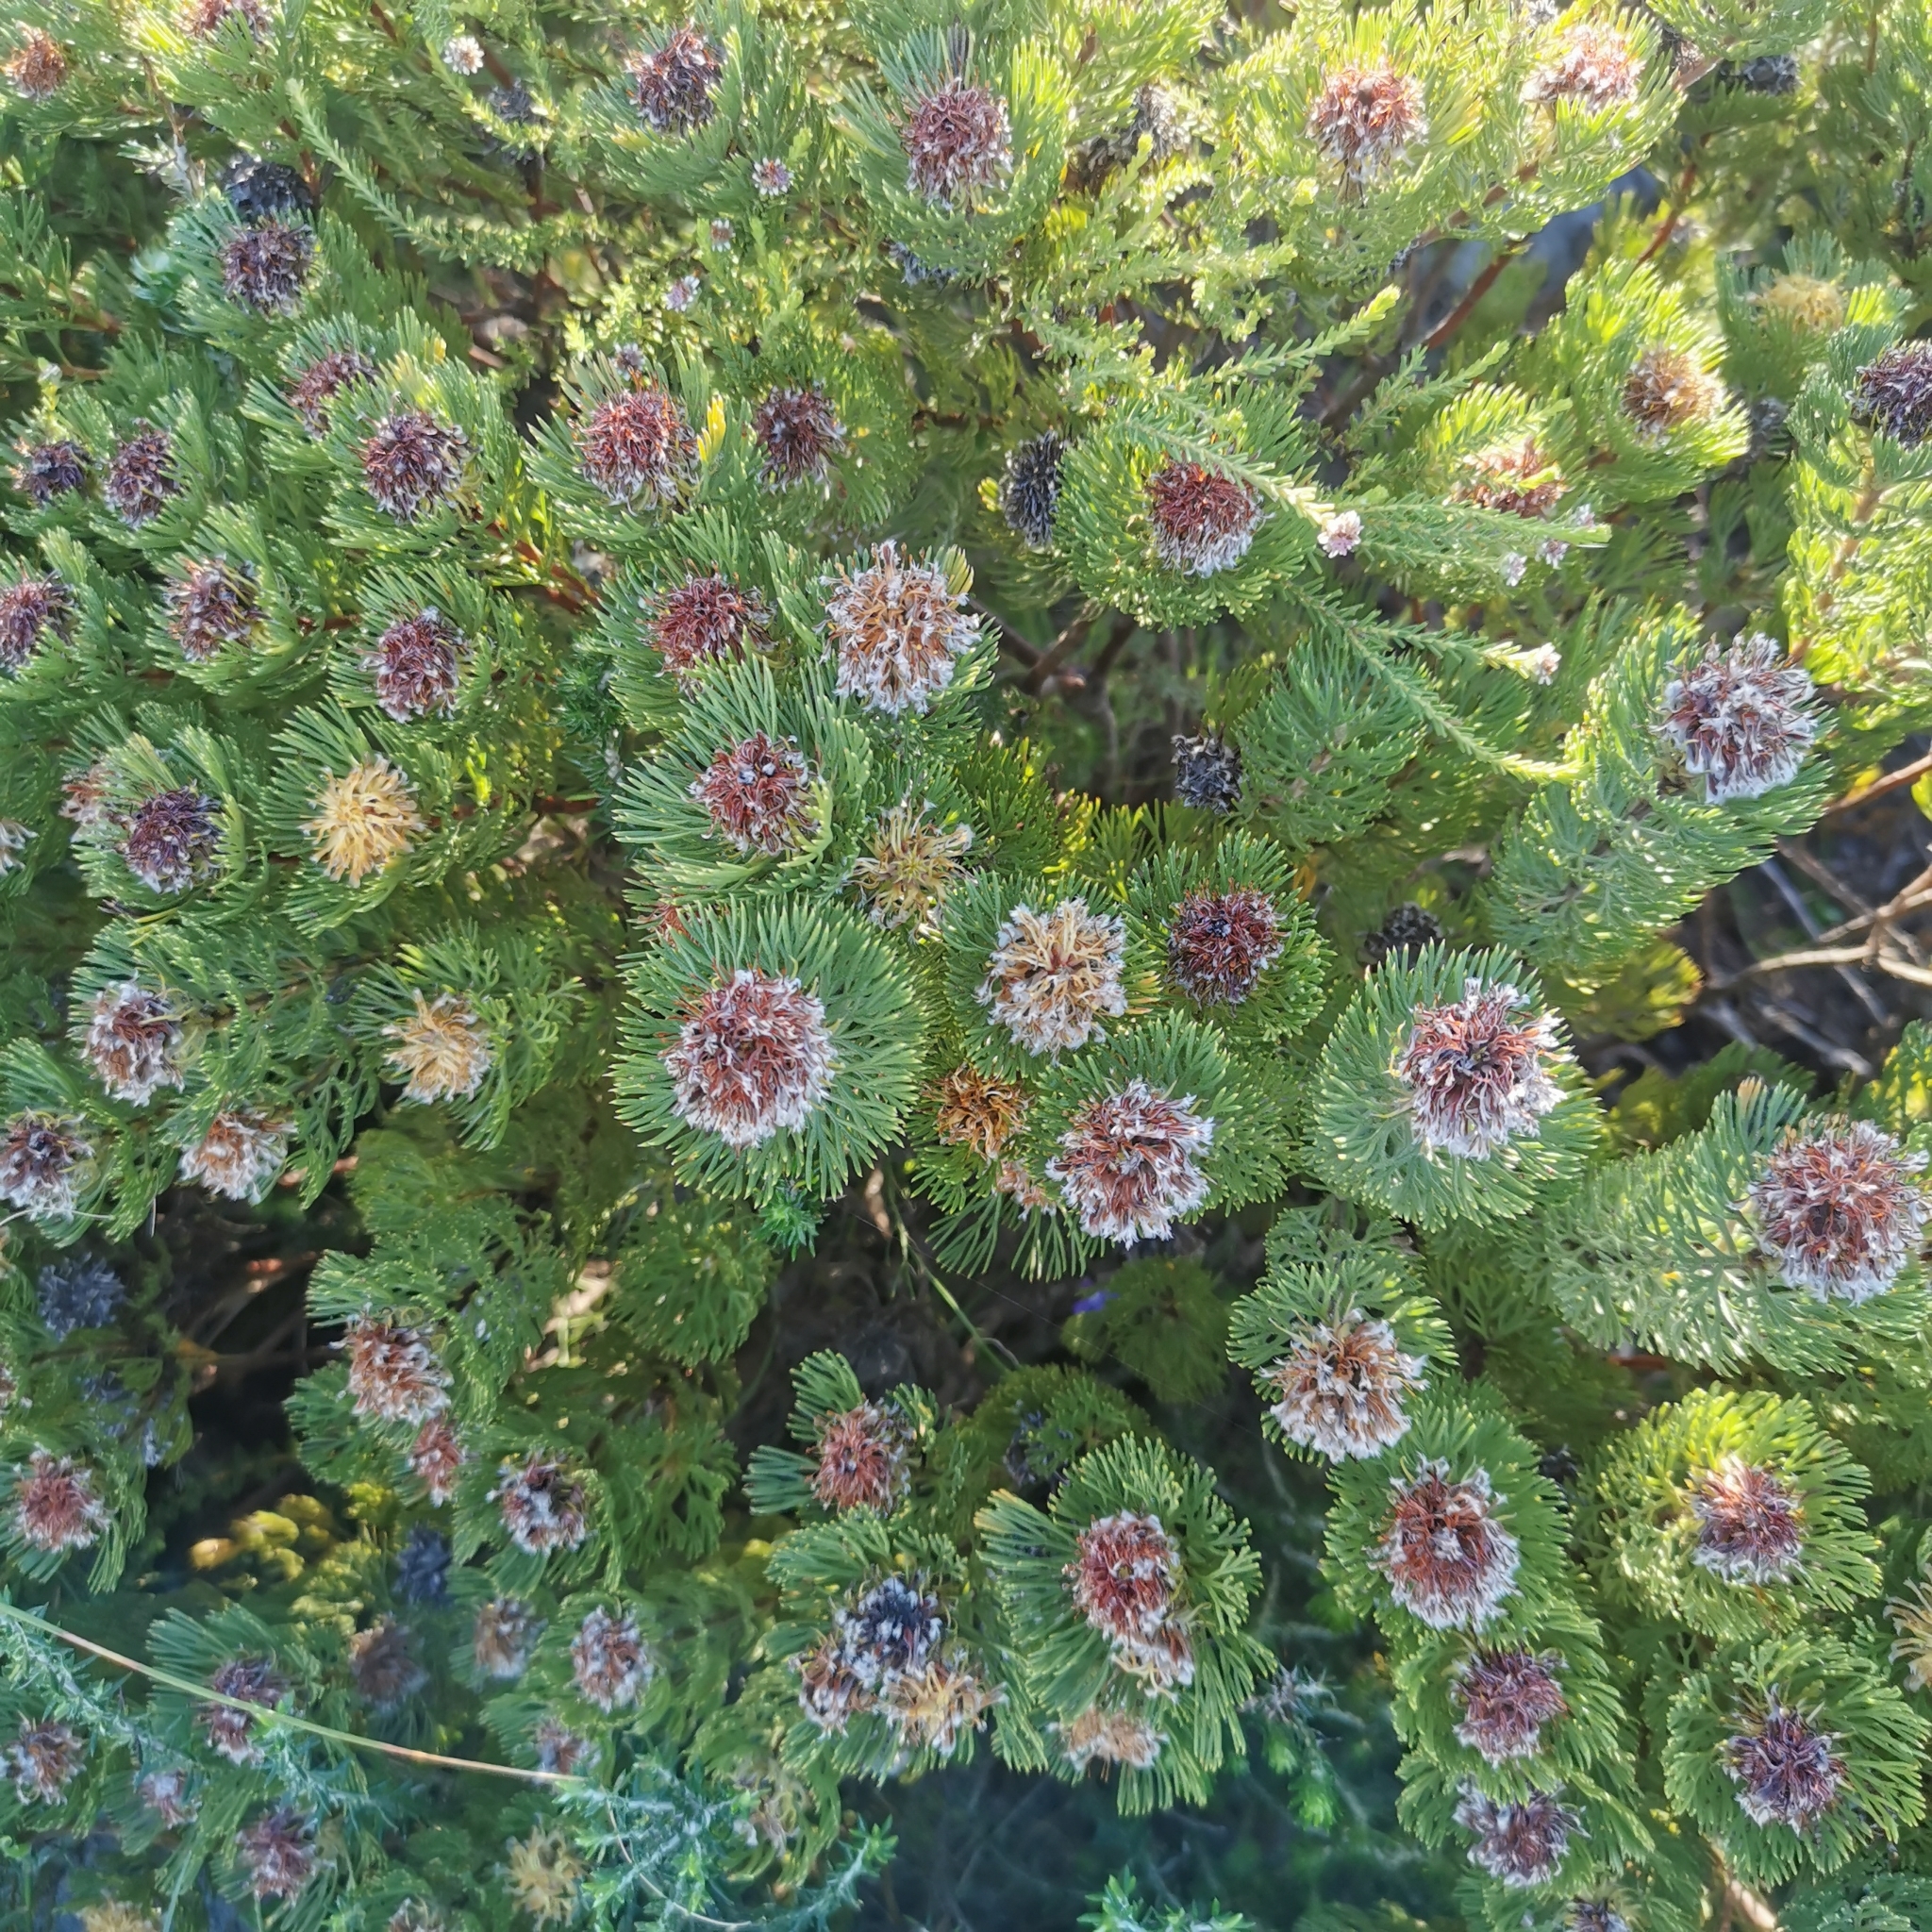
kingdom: Plantae
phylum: Tracheophyta
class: Magnoliopsida
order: Proteales
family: Proteaceae
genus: Serruria
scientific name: Serruria villosa
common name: Golden spiderhead
